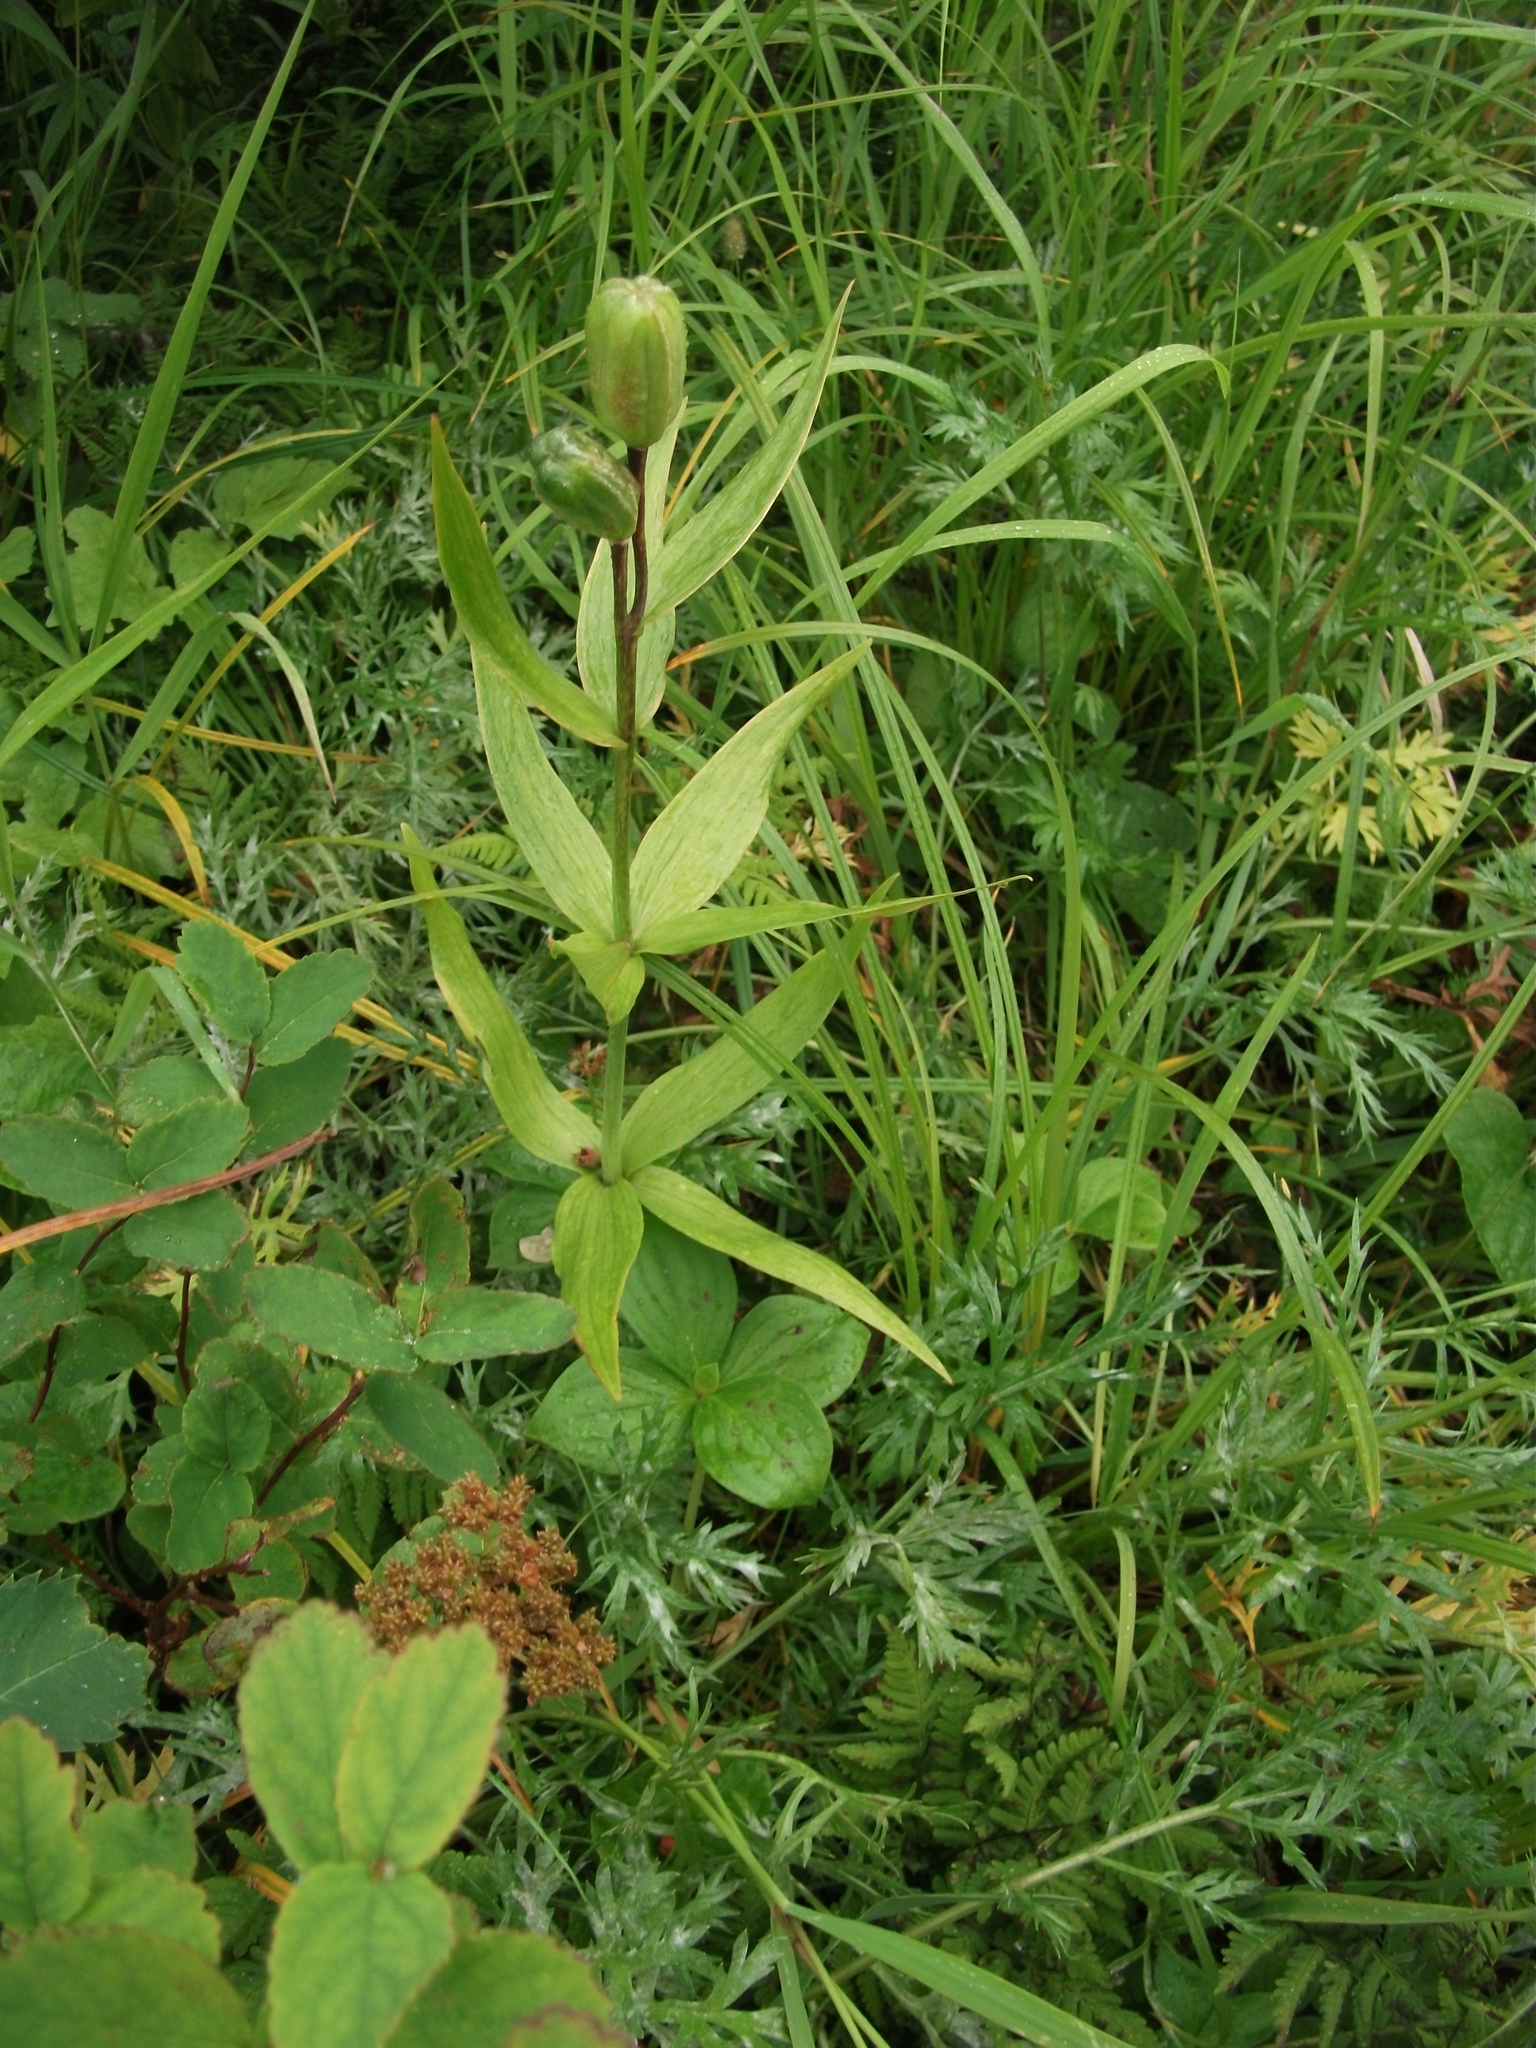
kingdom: Plantae
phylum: Tracheophyta
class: Liliopsida
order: Liliales
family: Liliaceae
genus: Fritillaria
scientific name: Fritillaria camschatcensis
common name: Kamchatka fritillary
